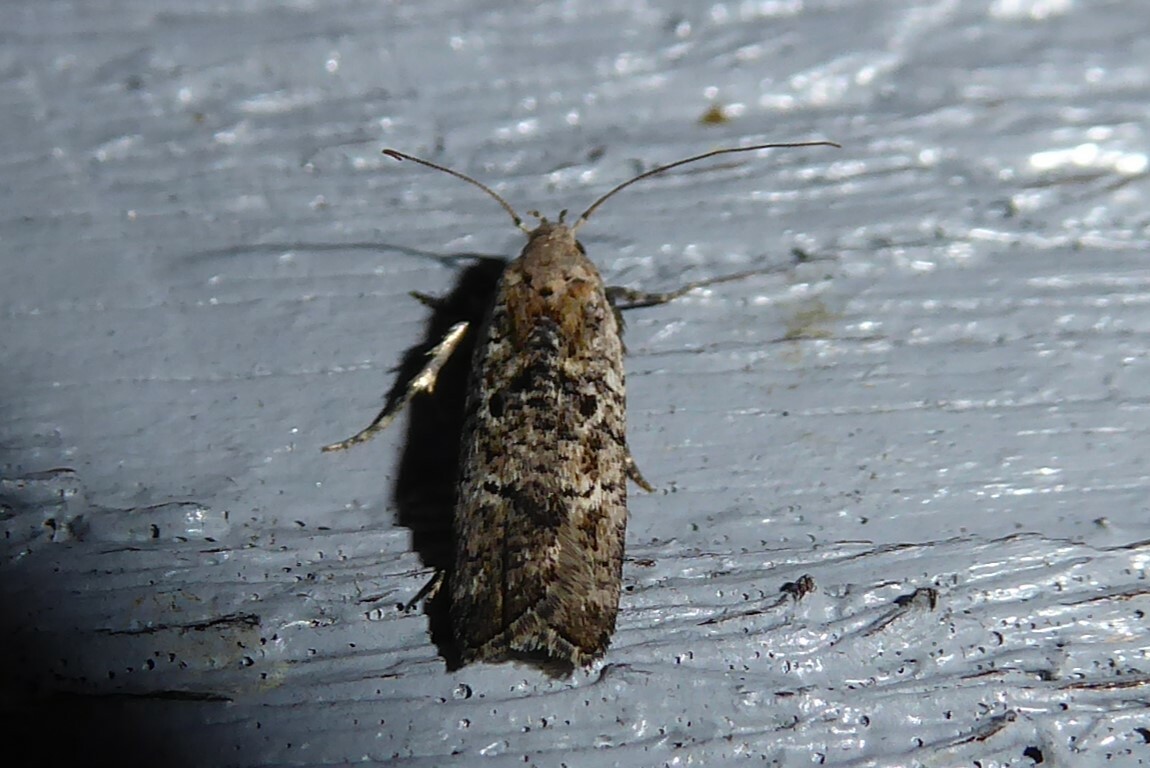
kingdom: Animalia
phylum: Arthropoda
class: Insecta
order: Lepidoptera
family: Gelechiidae
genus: Anisoplaca
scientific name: Anisoplaca achyrota
